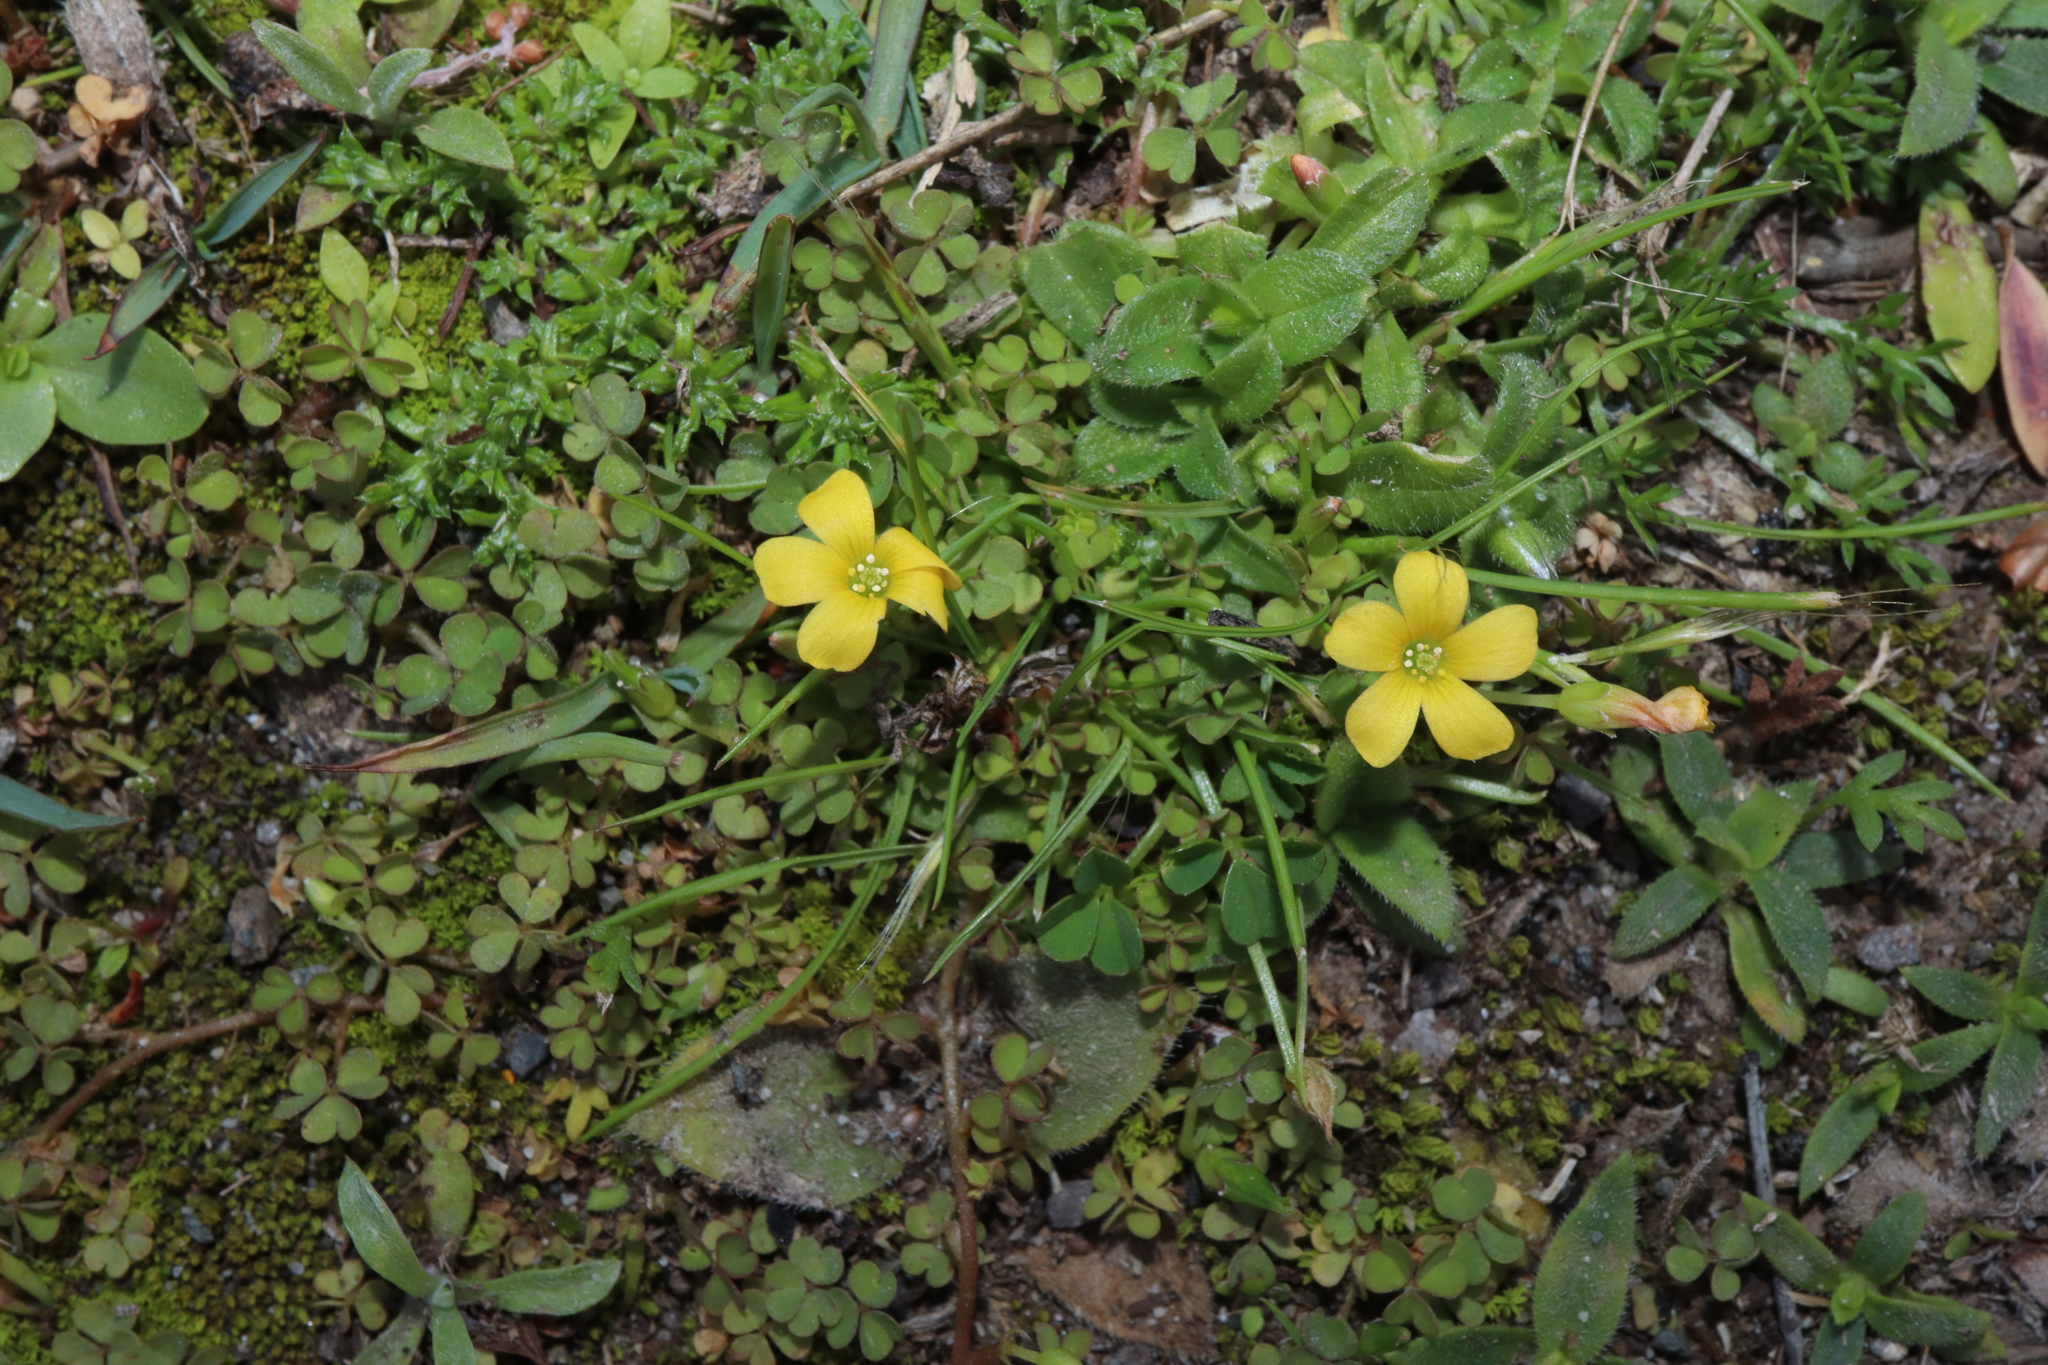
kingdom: Plantae
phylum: Tracheophyta
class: Magnoliopsida
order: Oxalidales
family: Oxalidaceae
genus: Oxalis
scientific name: Oxalis corniculata
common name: Procumbent yellow-sorrel
